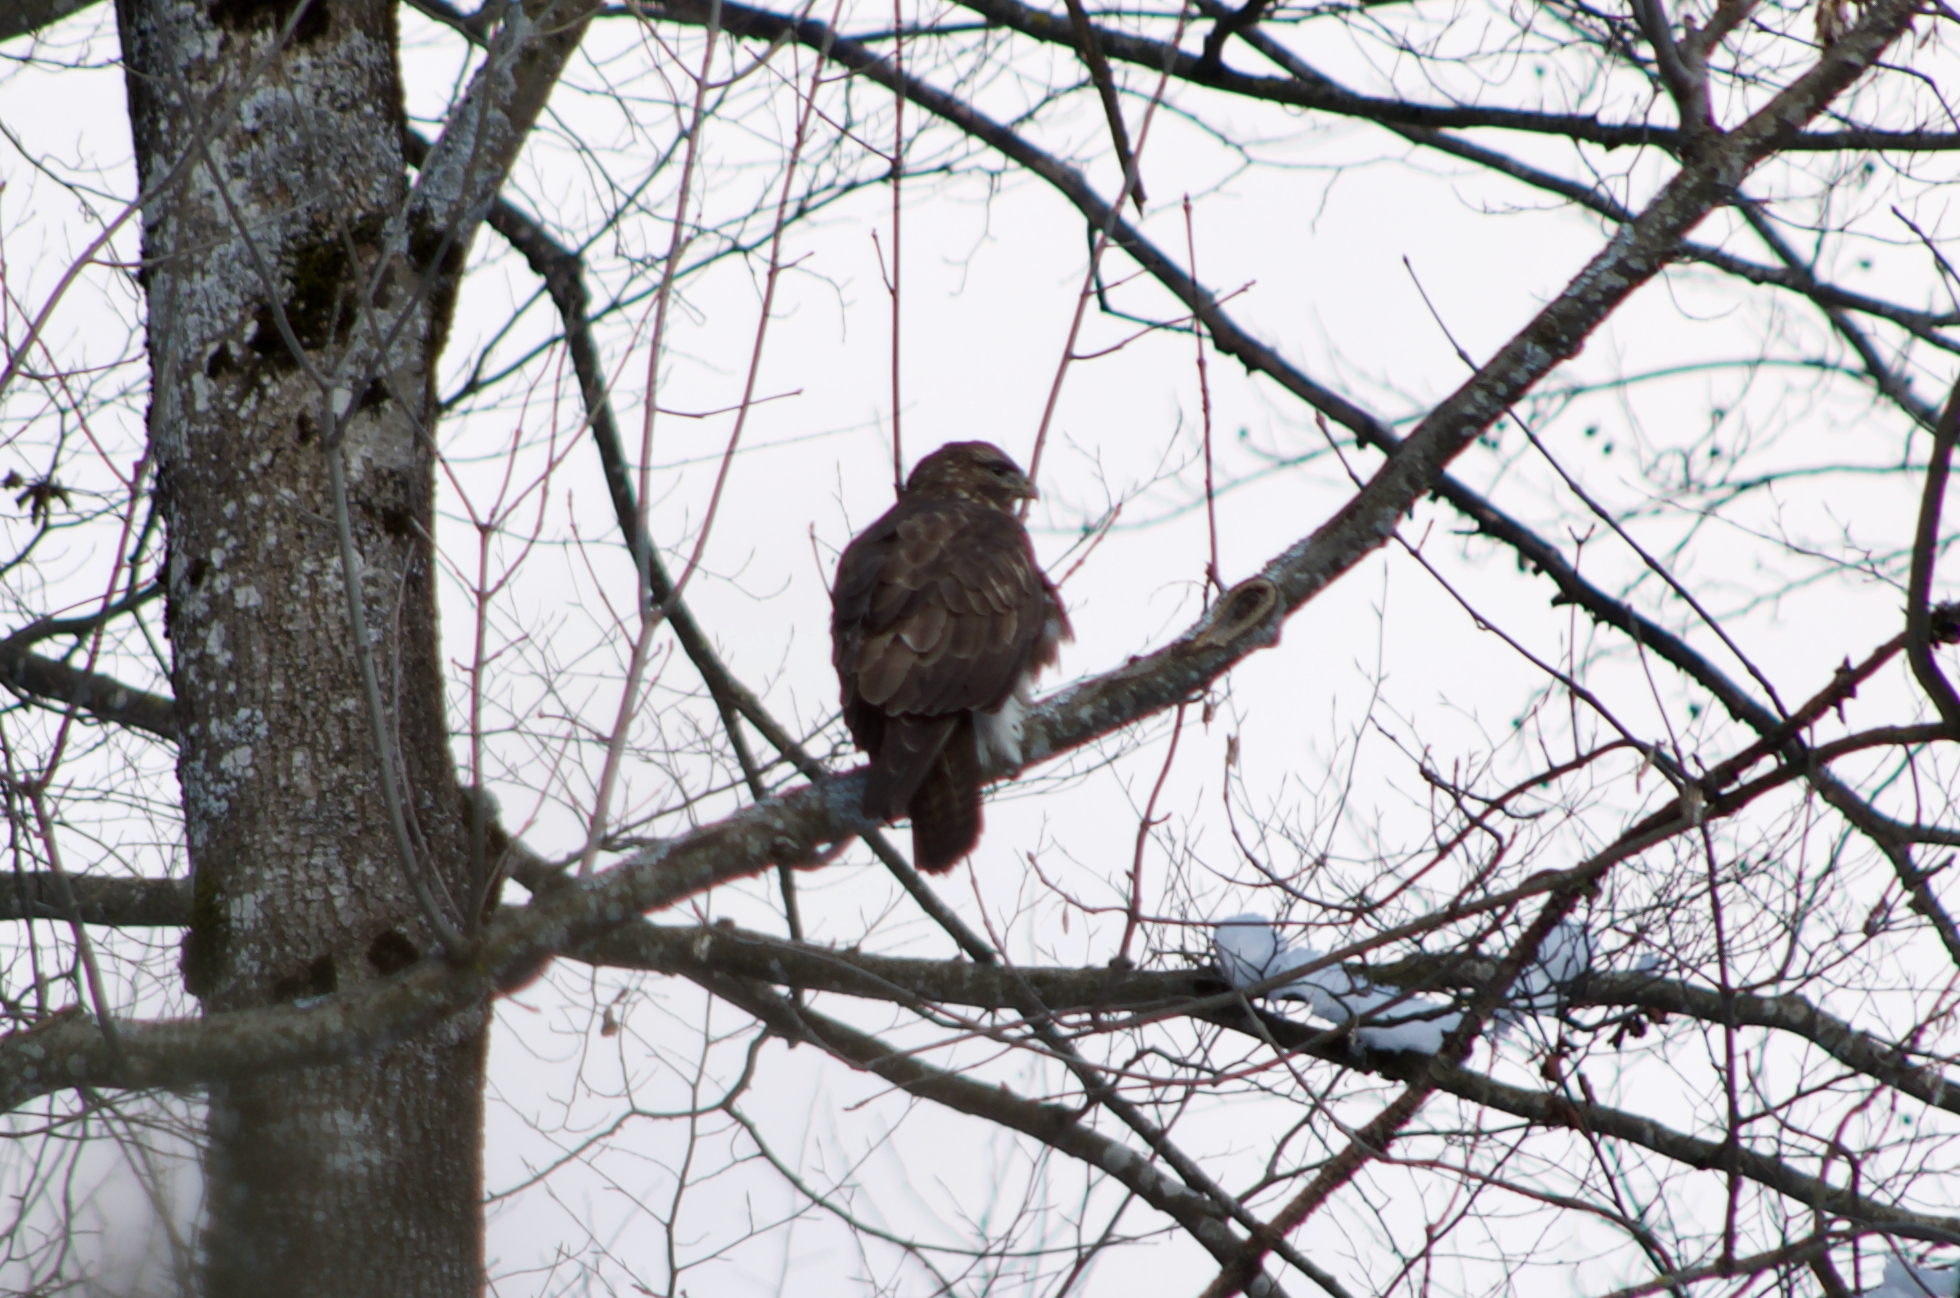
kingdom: Animalia
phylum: Chordata
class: Aves
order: Accipitriformes
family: Accipitridae
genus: Buteo
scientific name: Buteo buteo
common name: Common buzzard
